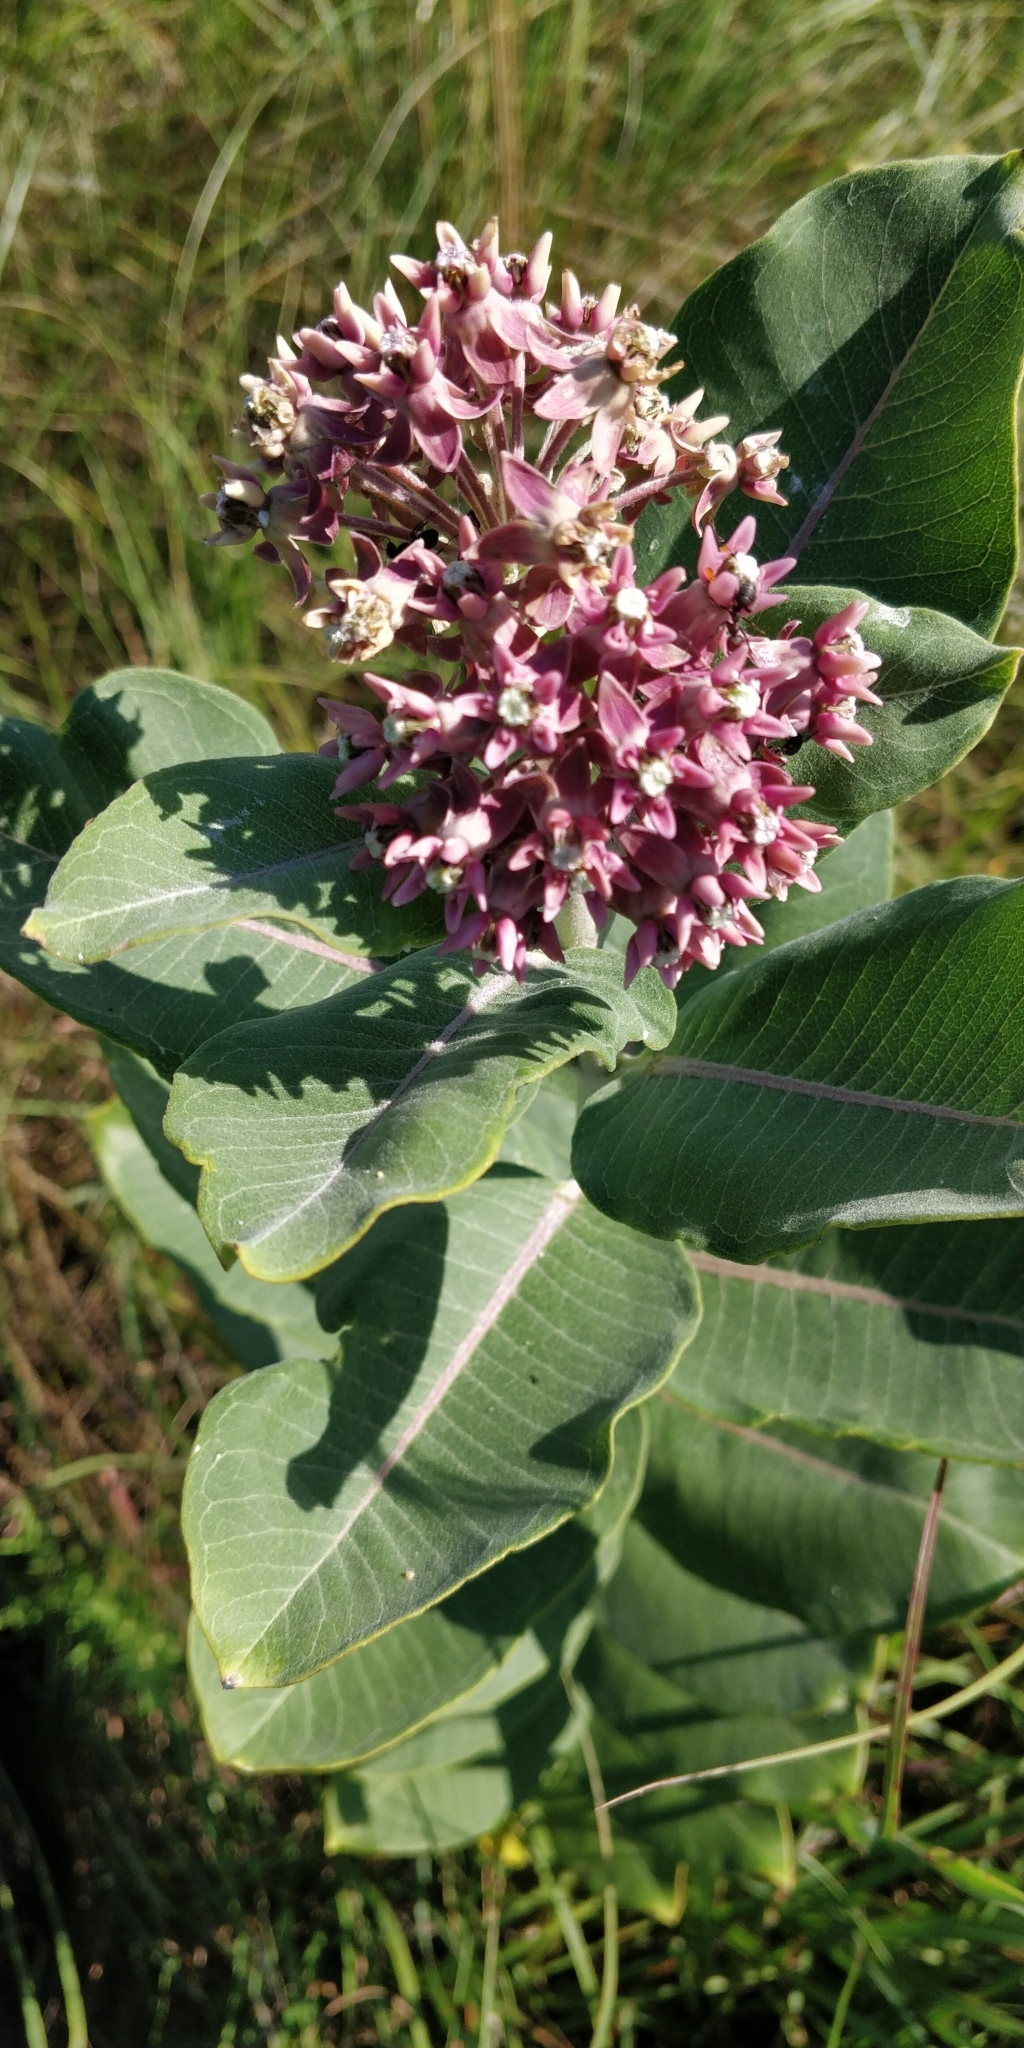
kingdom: Plantae
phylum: Tracheophyta
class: Magnoliopsida
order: Gentianales
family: Apocynaceae
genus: Asclepias
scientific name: Asclepias syriaca
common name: Common milkweed
